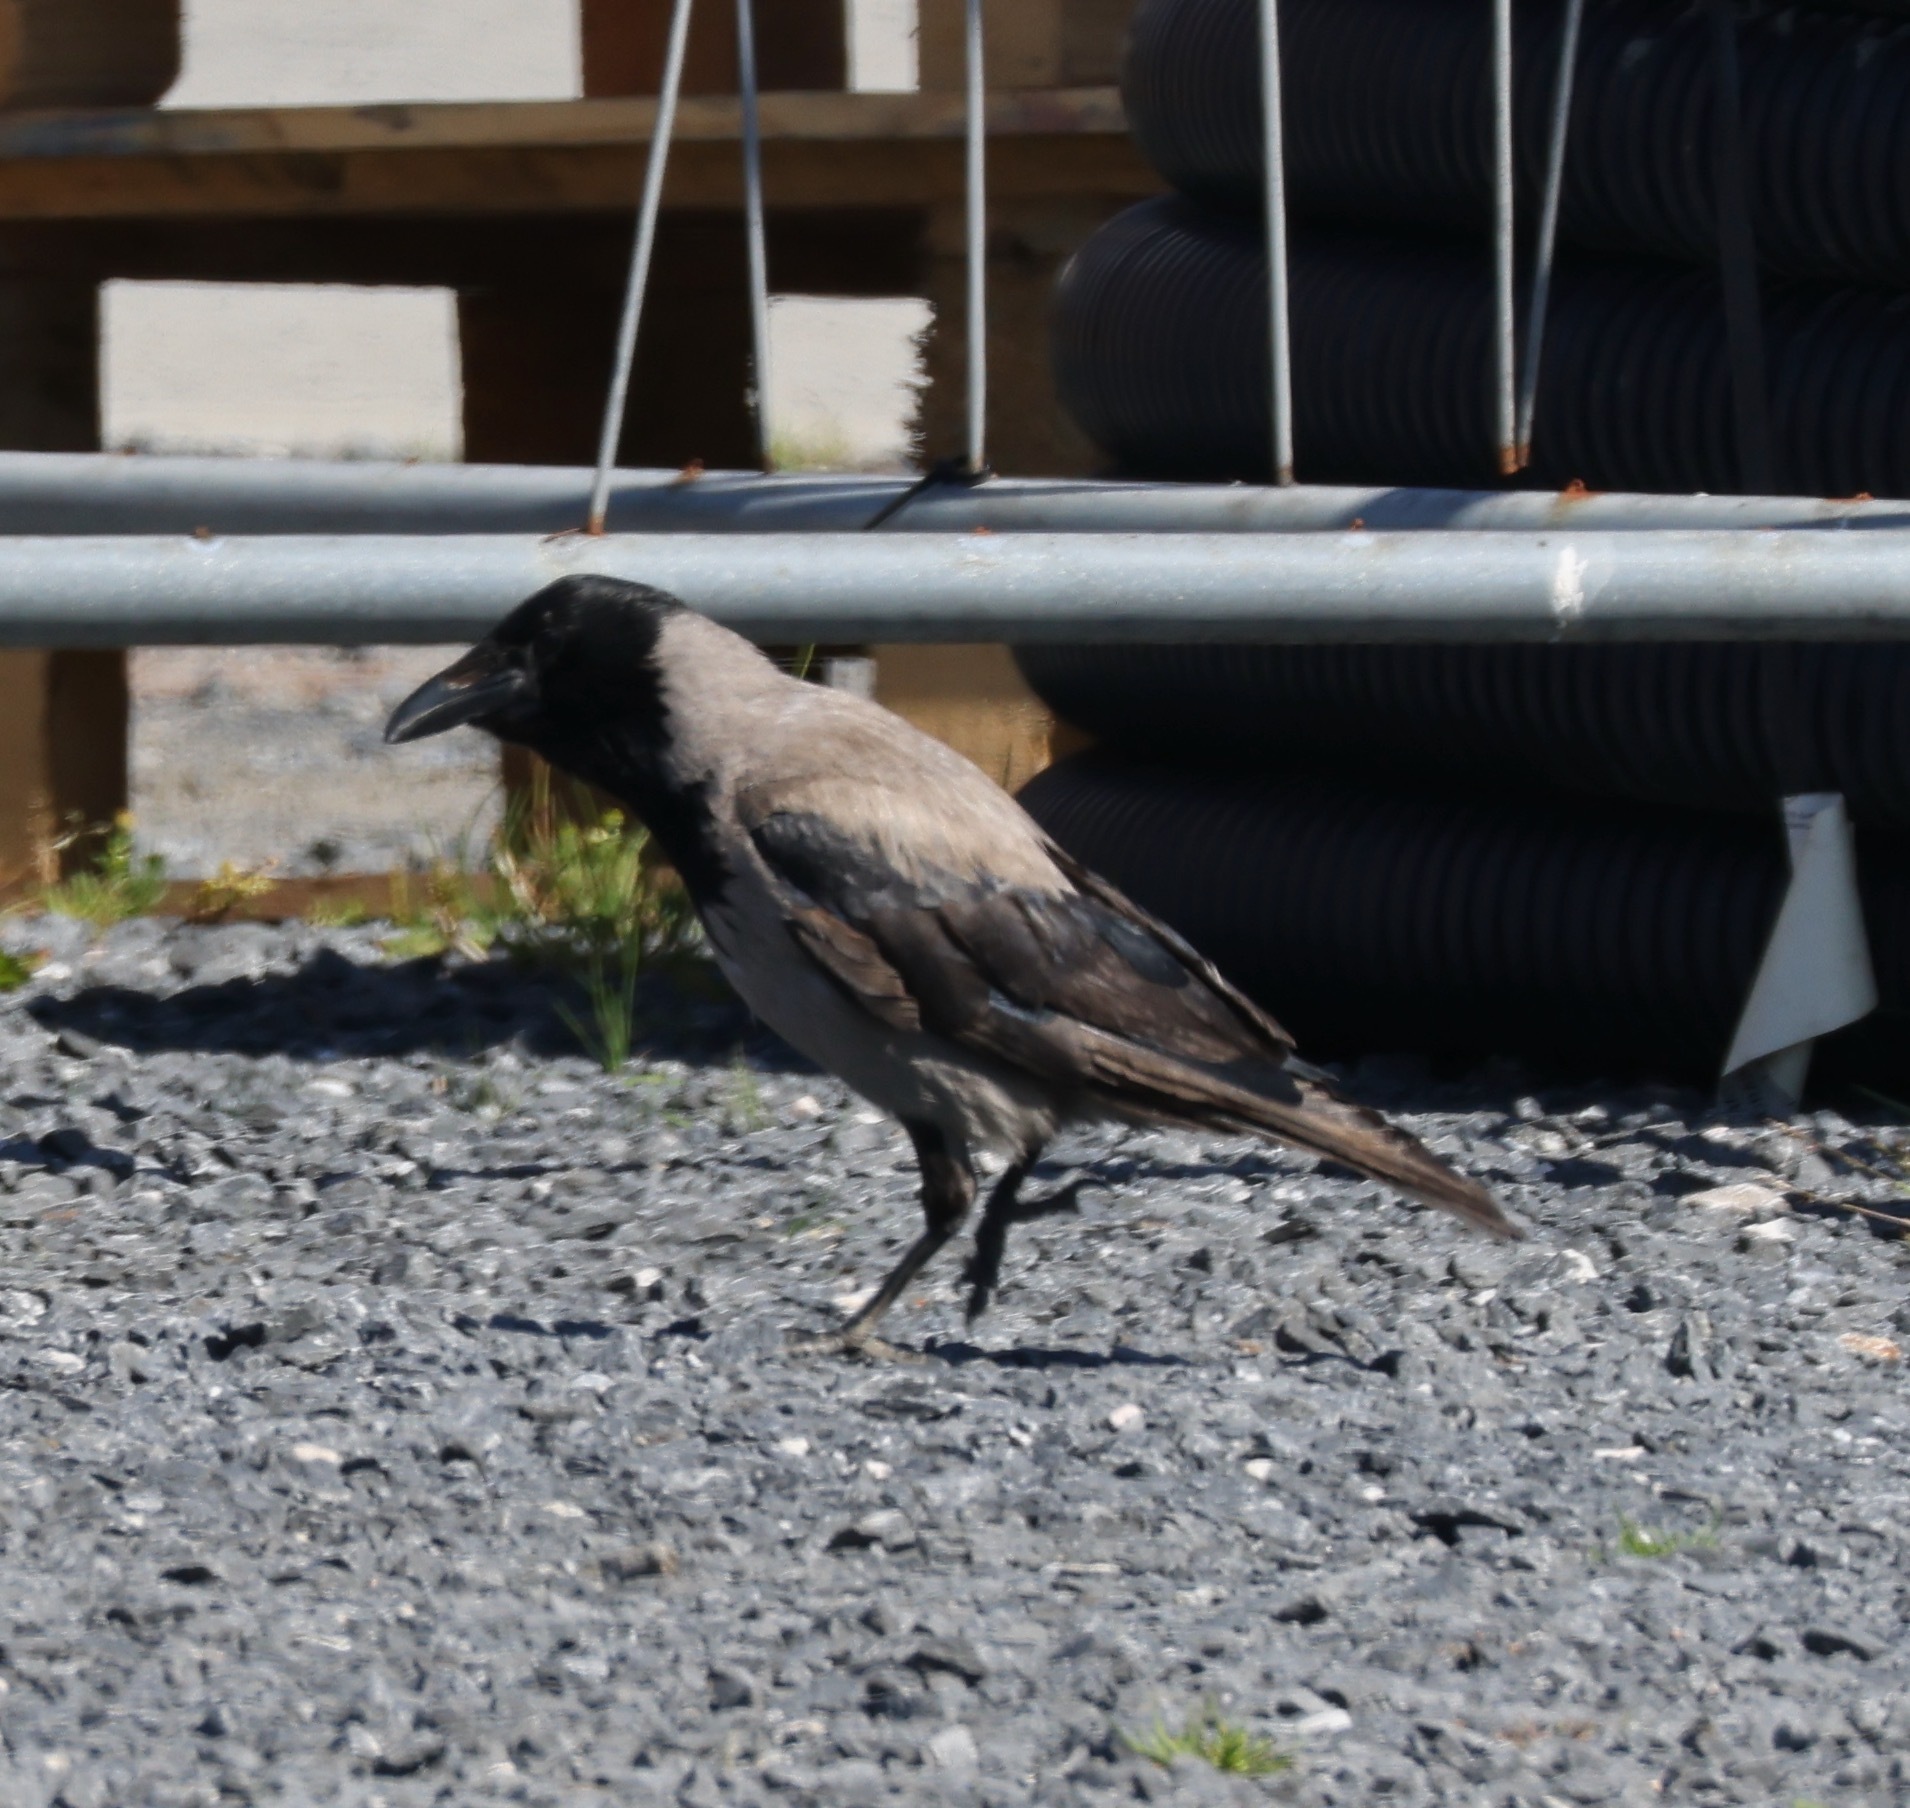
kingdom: Animalia
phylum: Chordata
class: Aves
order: Passeriformes
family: Corvidae
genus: Corvus
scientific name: Corvus cornix
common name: Hooded crow
